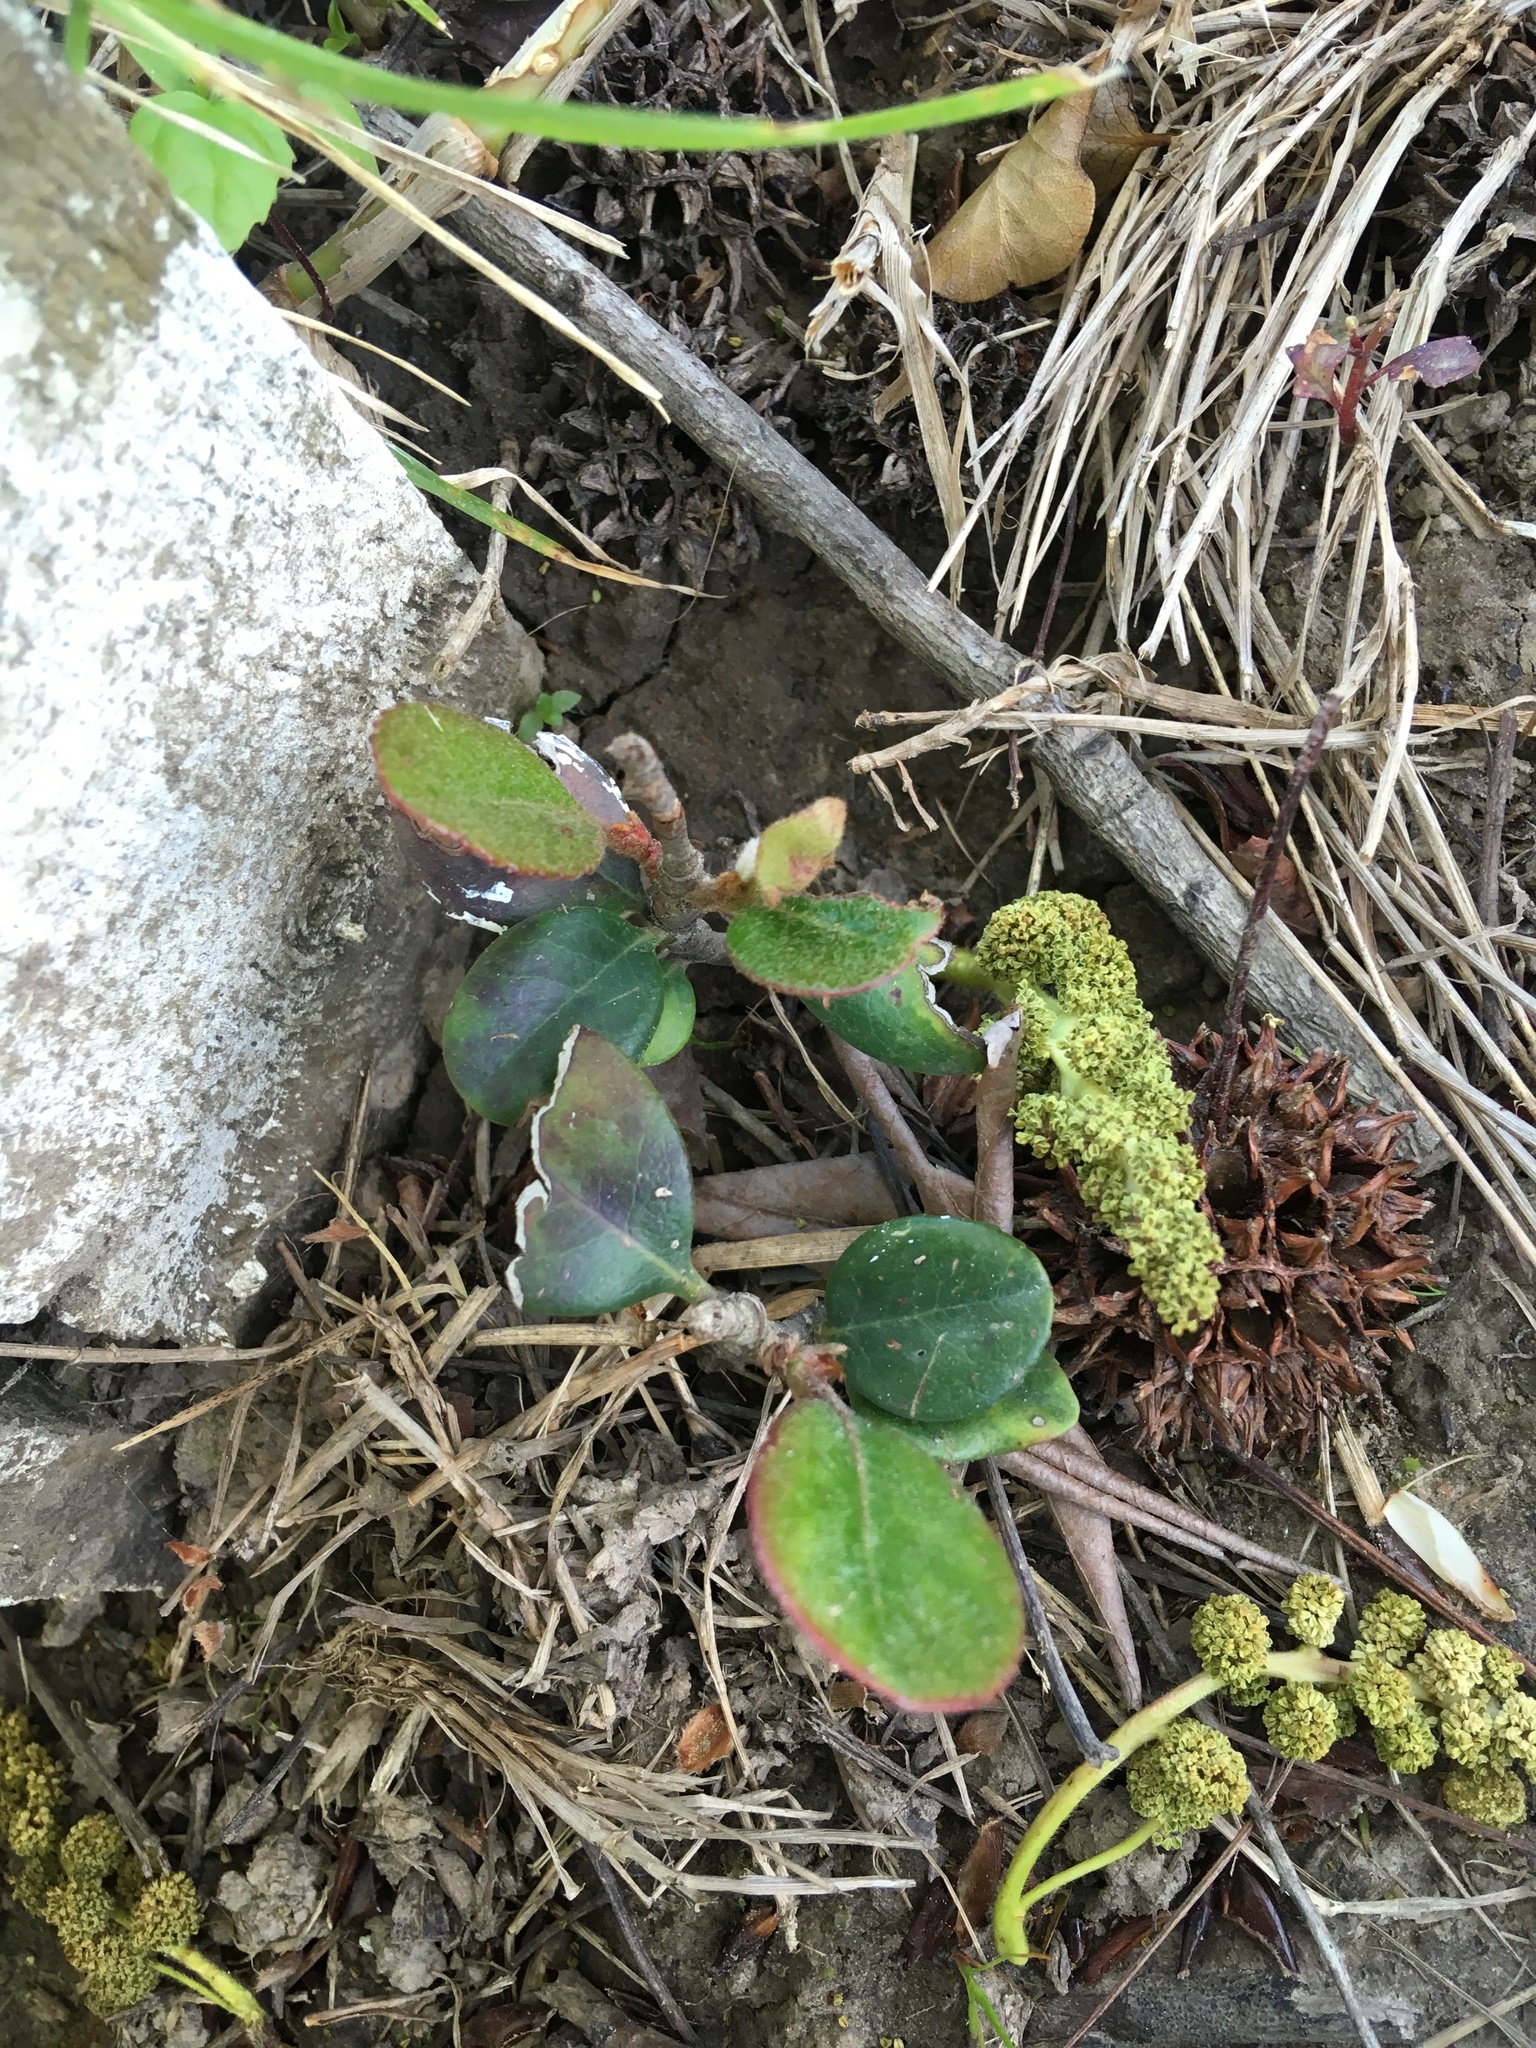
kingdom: Plantae
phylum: Tracheophyta
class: Magnoliopsida
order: Rosales
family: Rosaceae
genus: Rhaphiolepis
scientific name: Rhaphiolepis indica
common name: India-hawthorn
